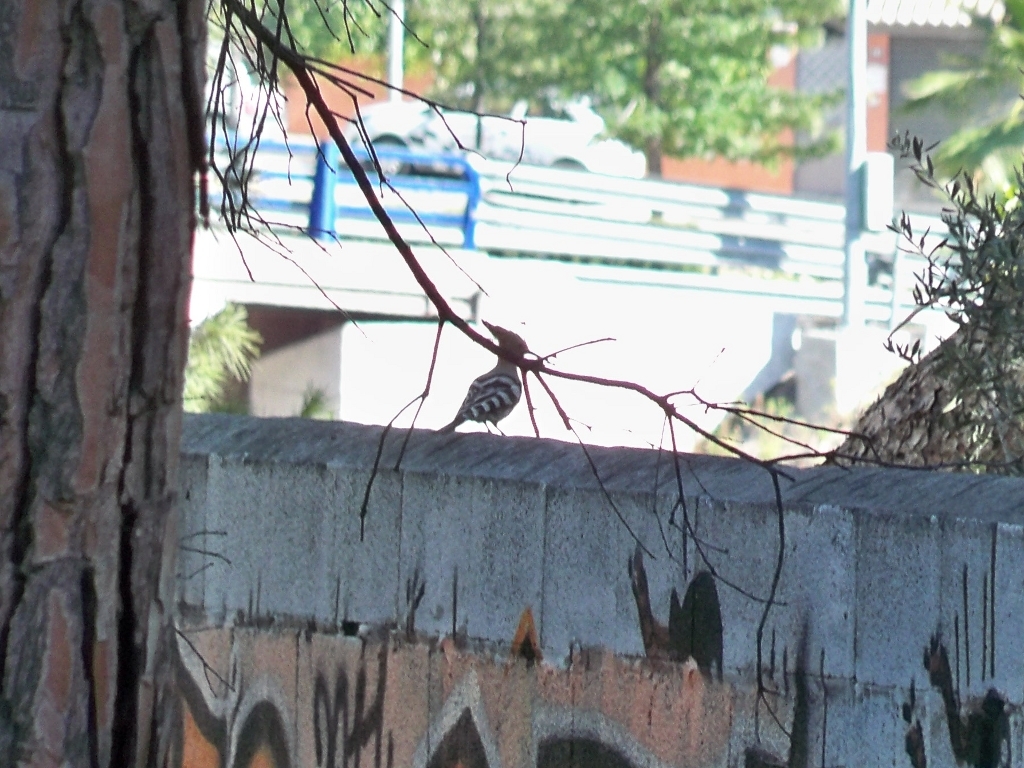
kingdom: Animalia
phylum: Chordata
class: Aves
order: Bucerotiformes
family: Upupidae
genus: Upupa
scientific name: Upupa epops
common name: Eurasian hoopoe
